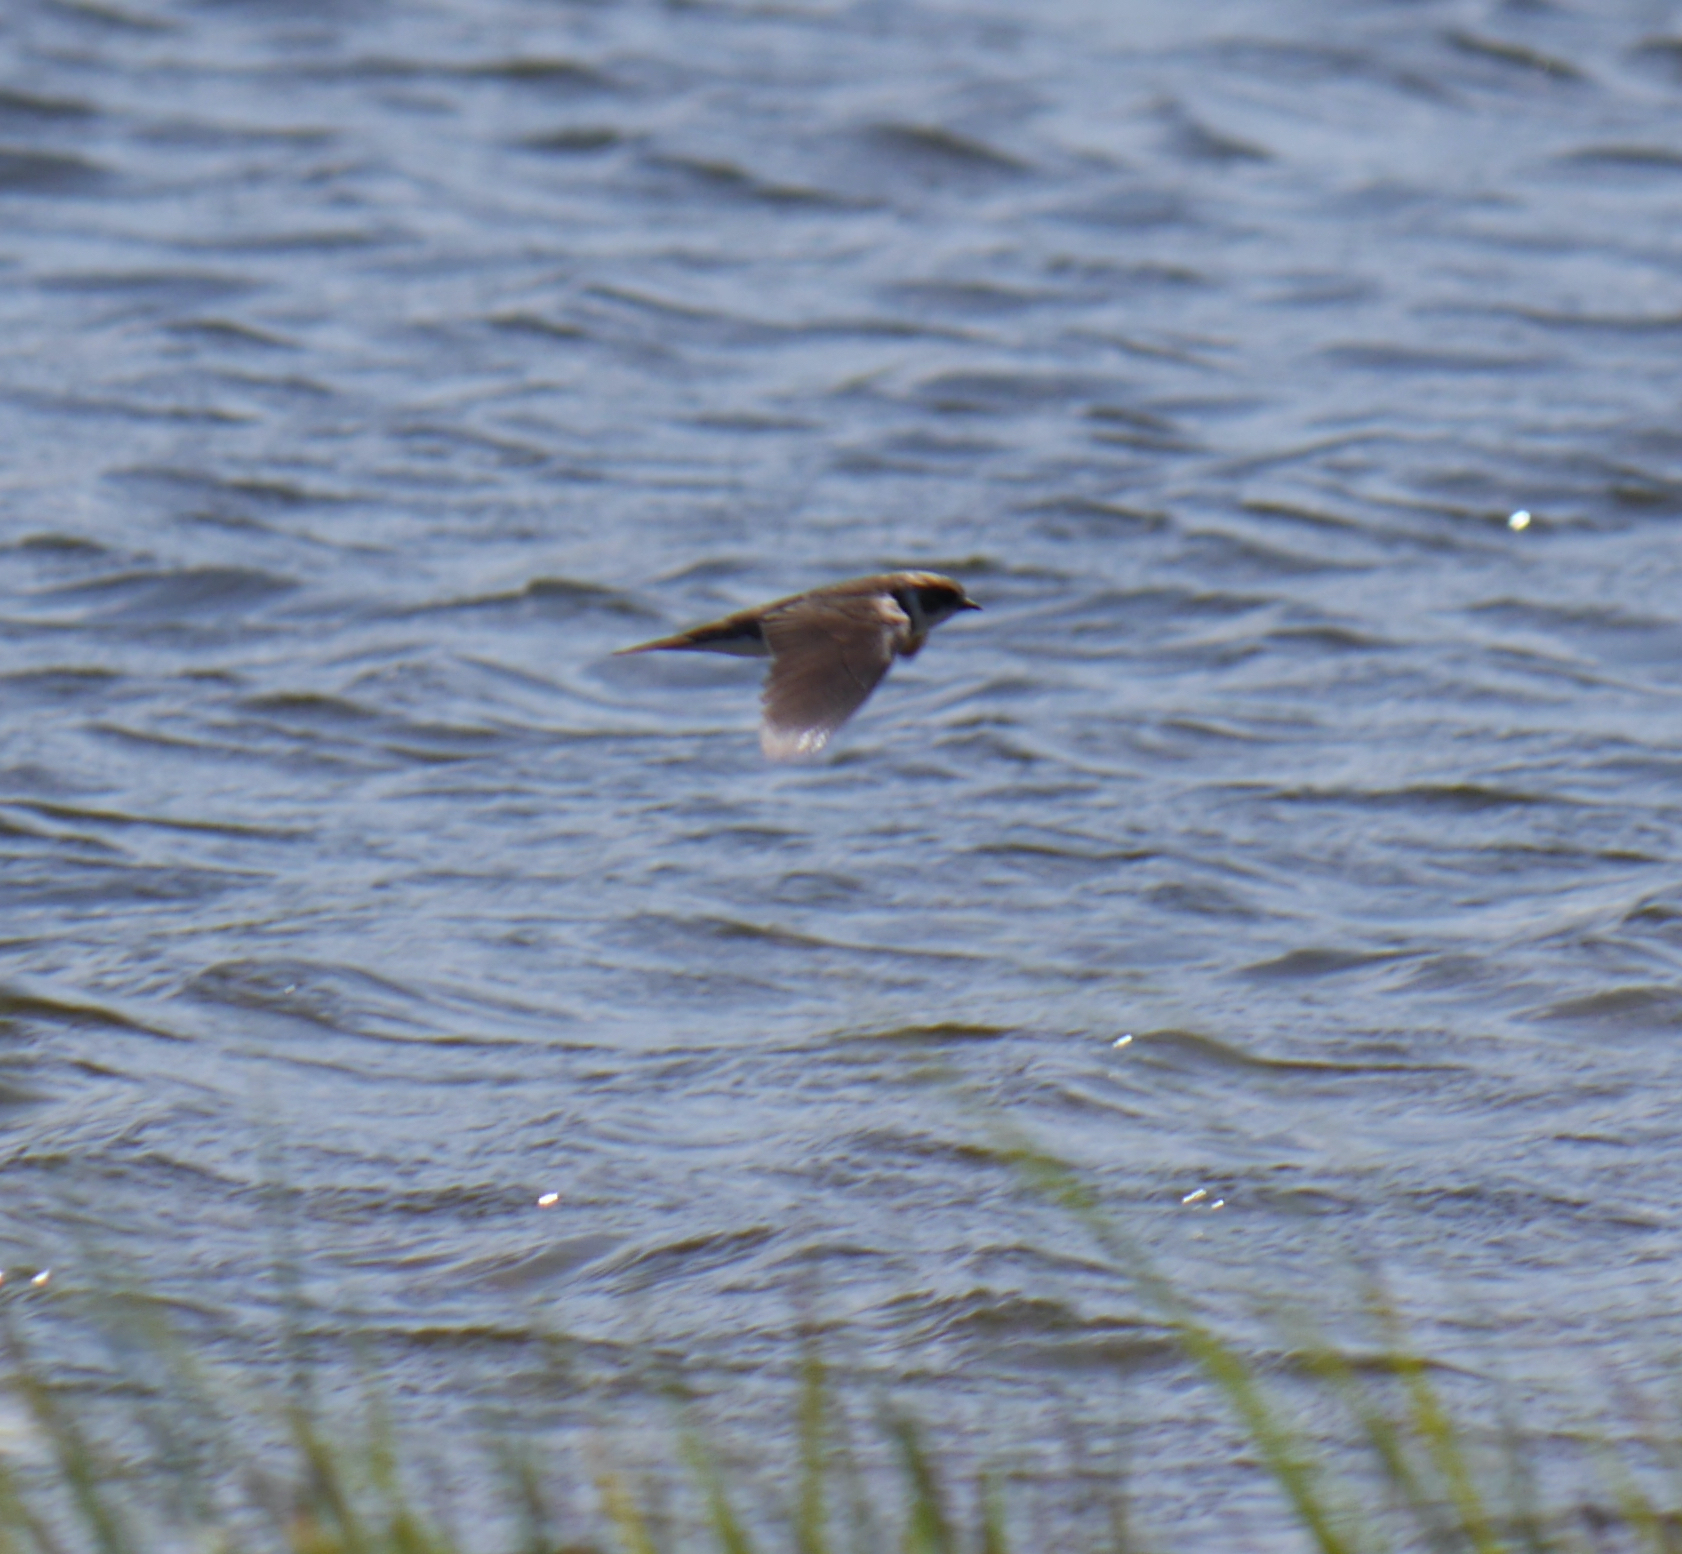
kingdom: Animalia
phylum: Chordata
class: Aves
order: Passeriformes
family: Hirundinidae
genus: Delichon
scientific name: Delichon urbicum
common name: Common house martin
